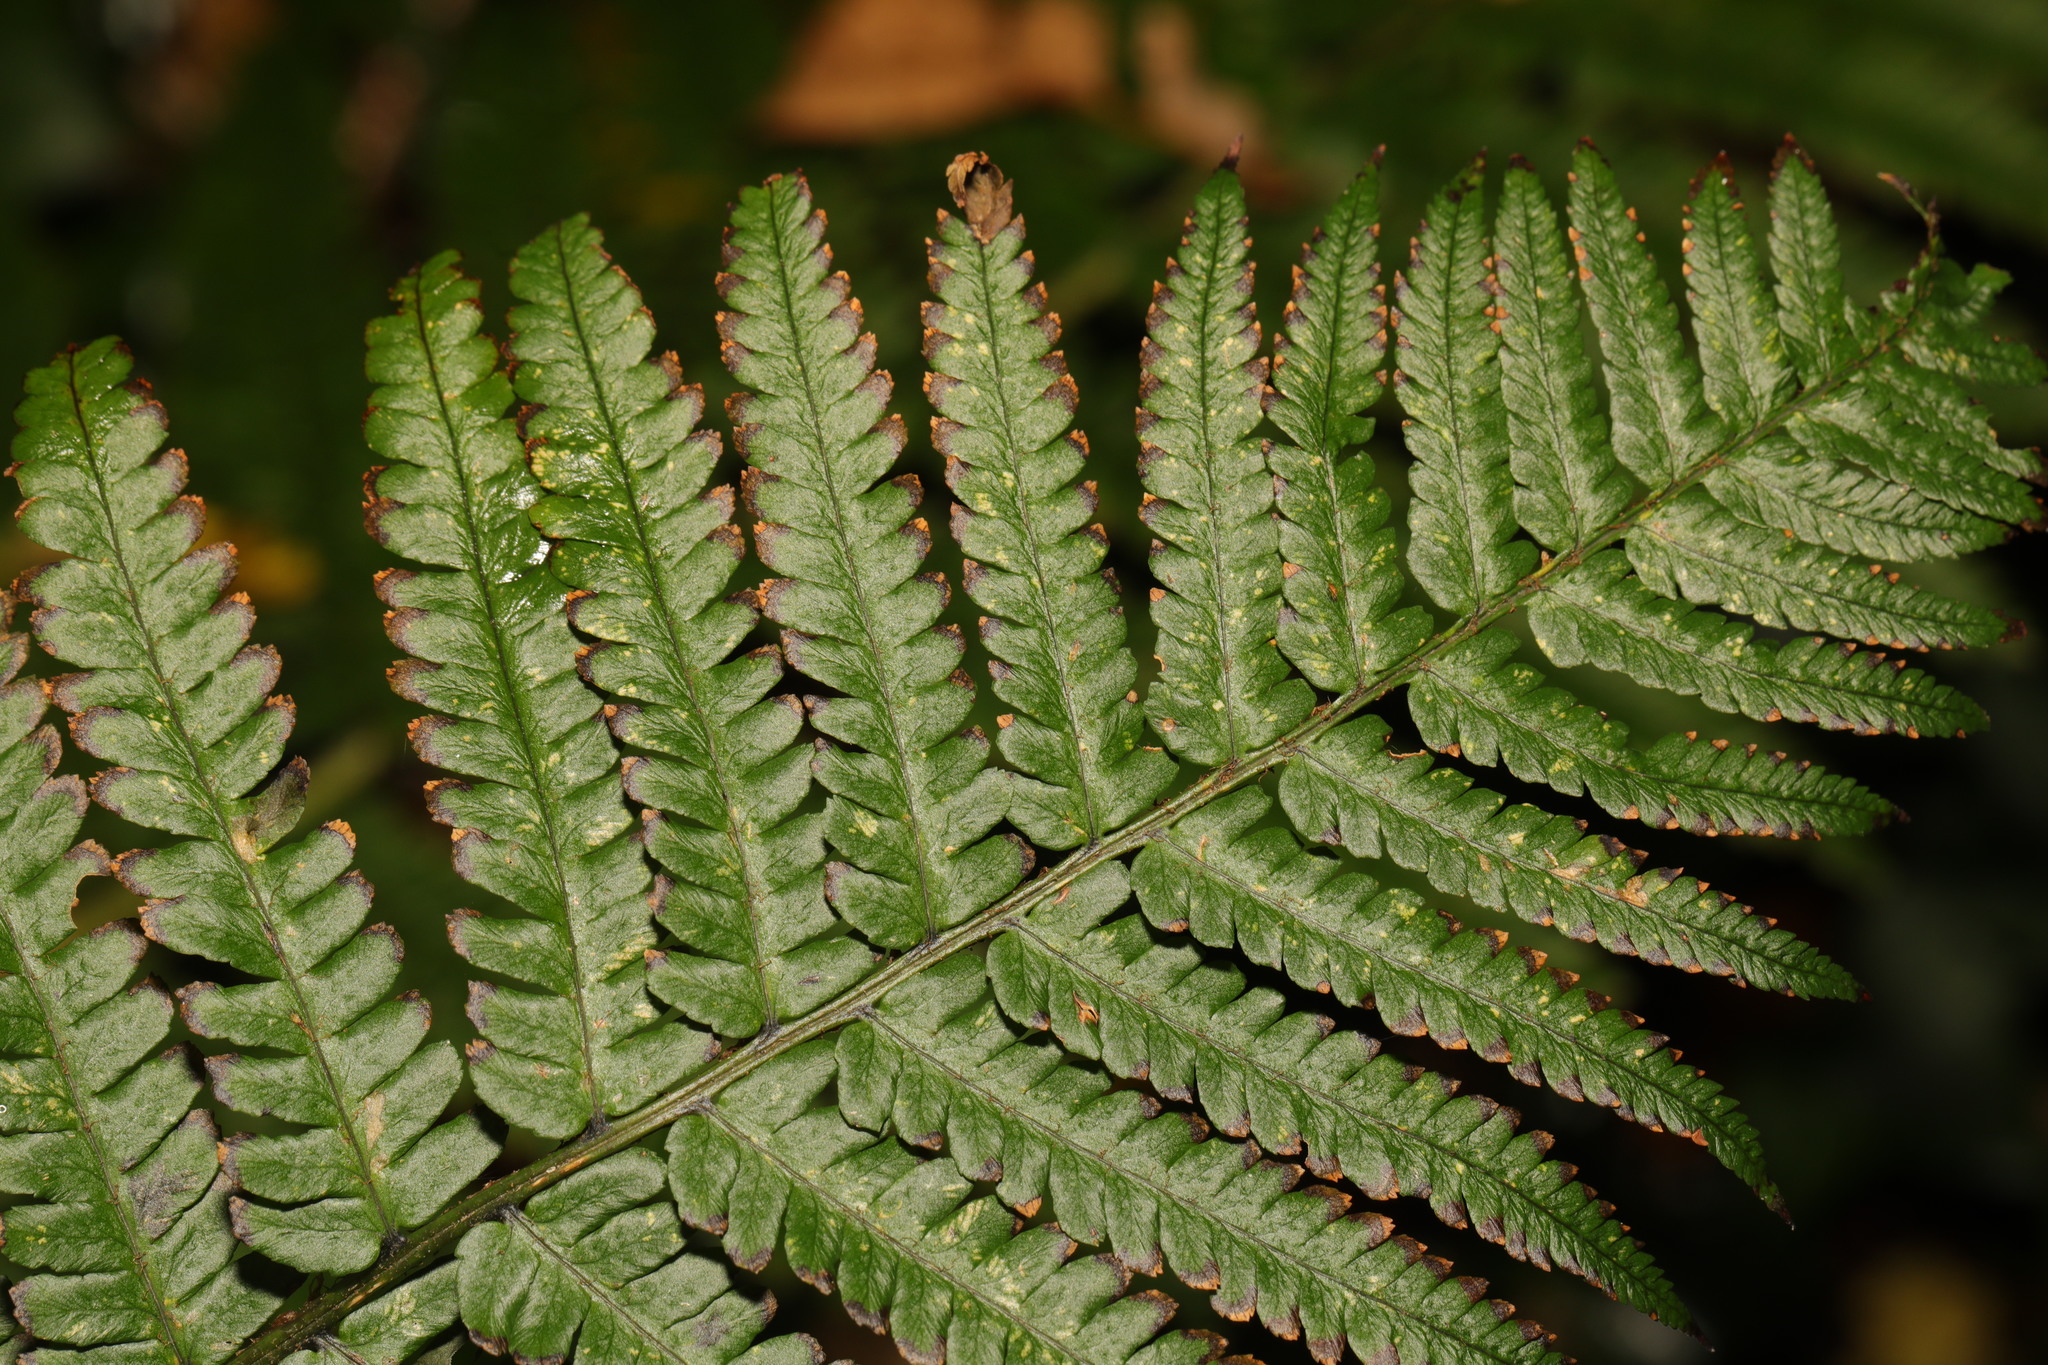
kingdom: Plantae
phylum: Tracheophyta
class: Polypodiopsida
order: Polypodiales
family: Dryopteridaceae
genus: Dryopteris
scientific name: Dryopteris
